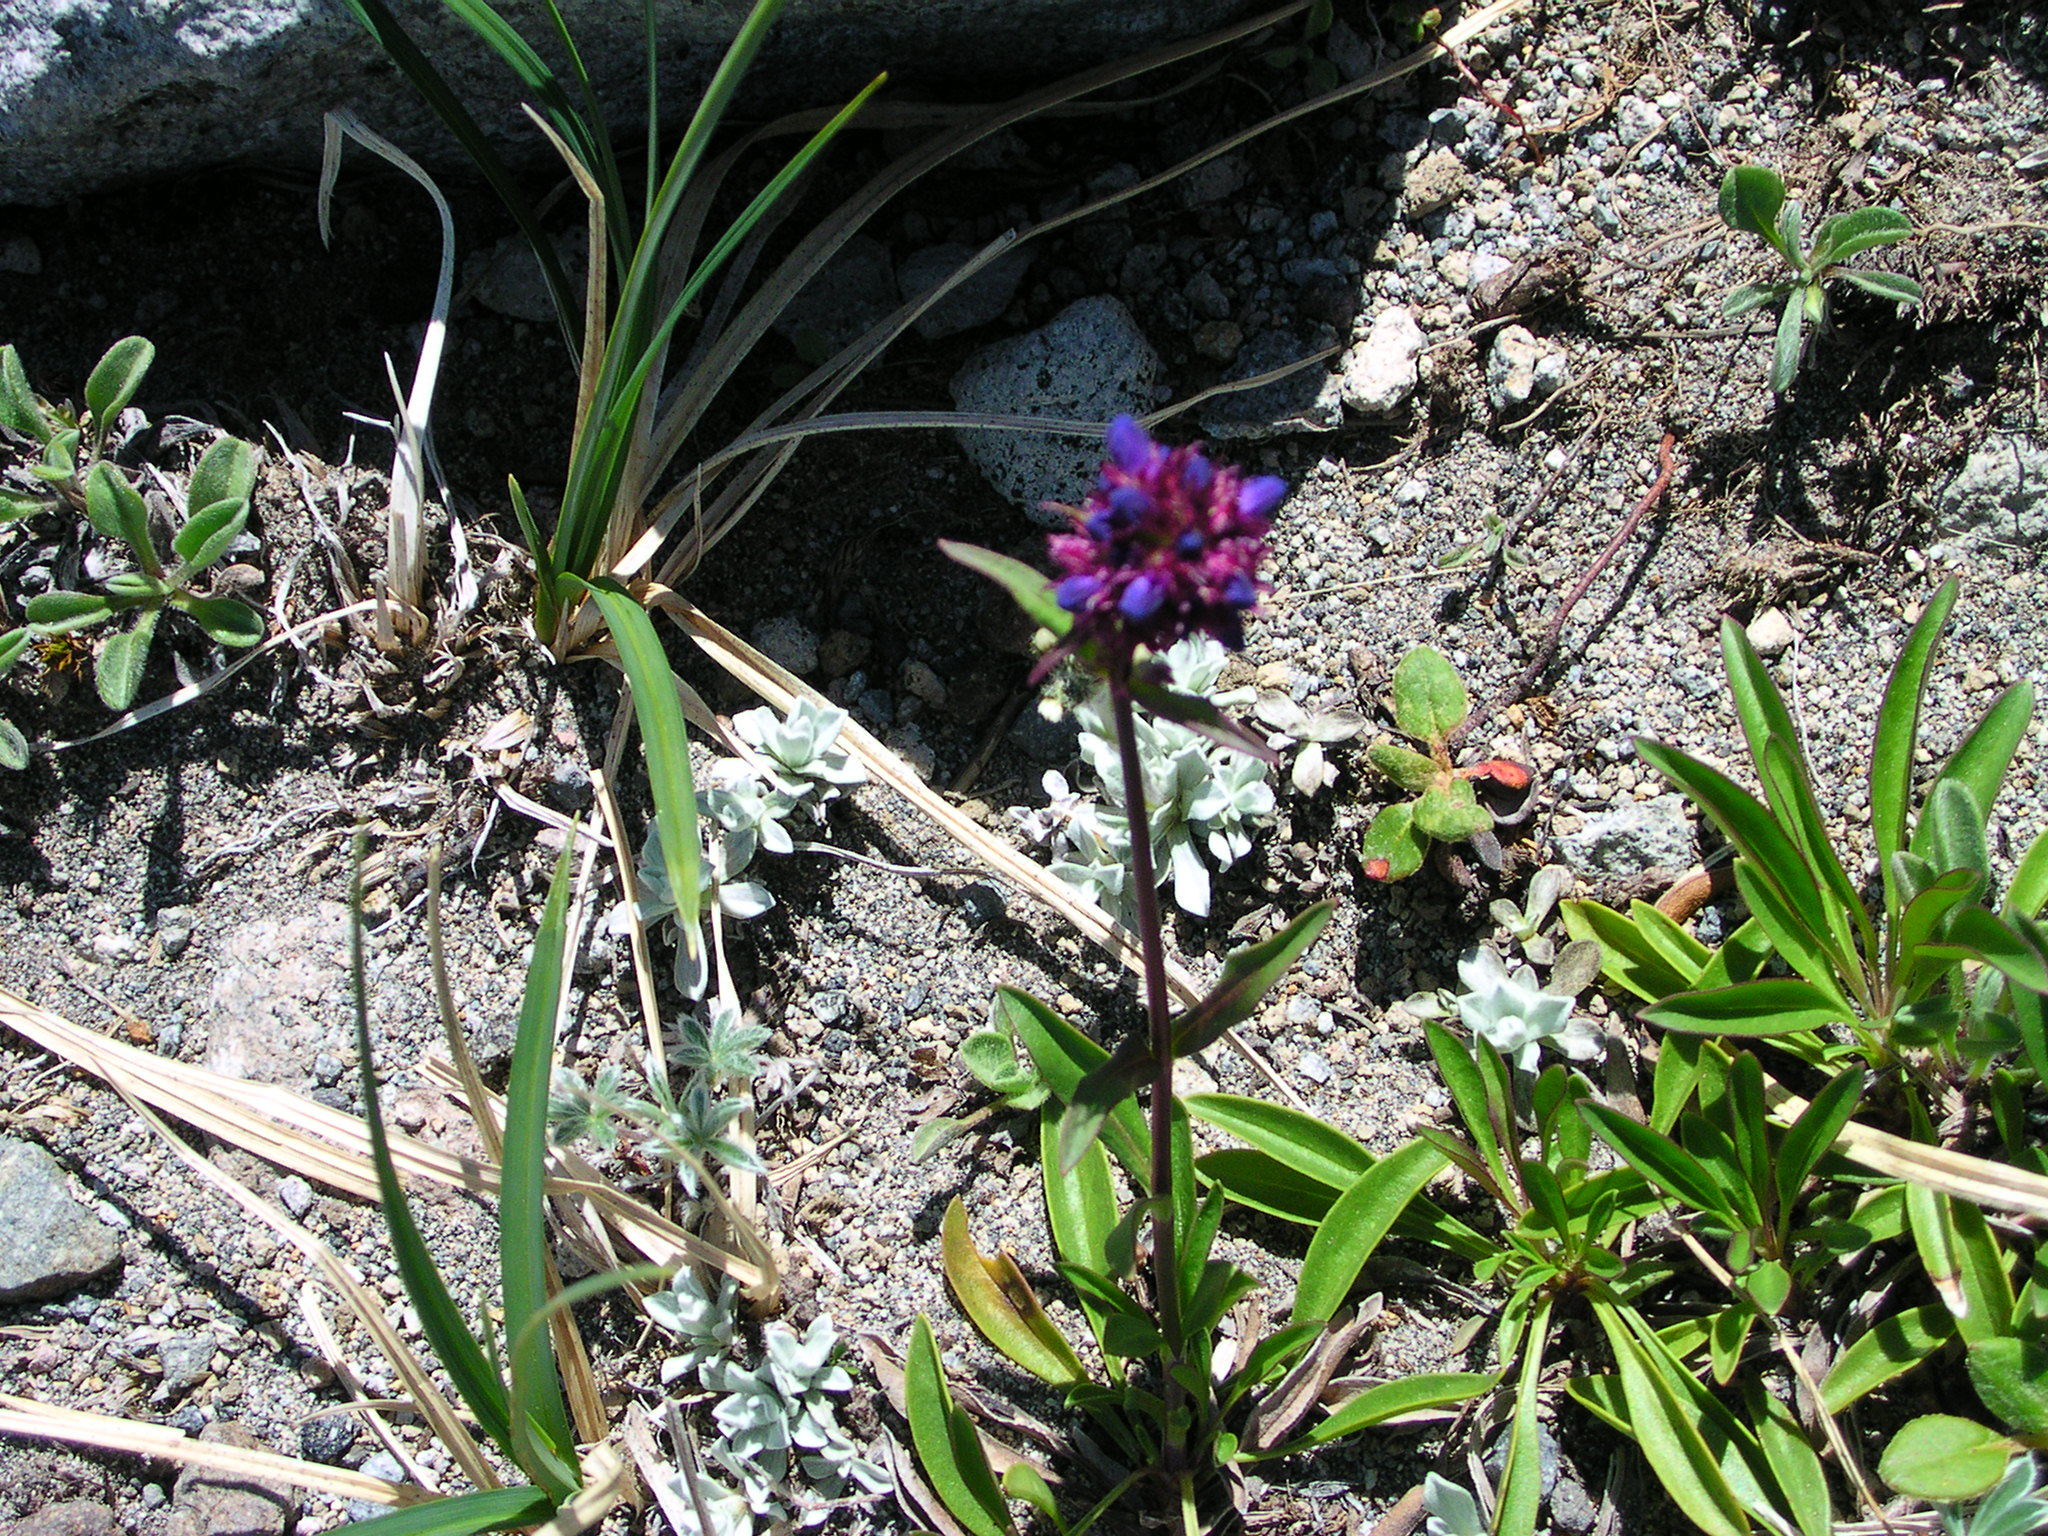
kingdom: Plantae
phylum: Tracheophyta
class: Magnoliopsida
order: Lamiales
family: Plantaginaceae
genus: Penstemon
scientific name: Penstemon procerus
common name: Small-flower penstemon
